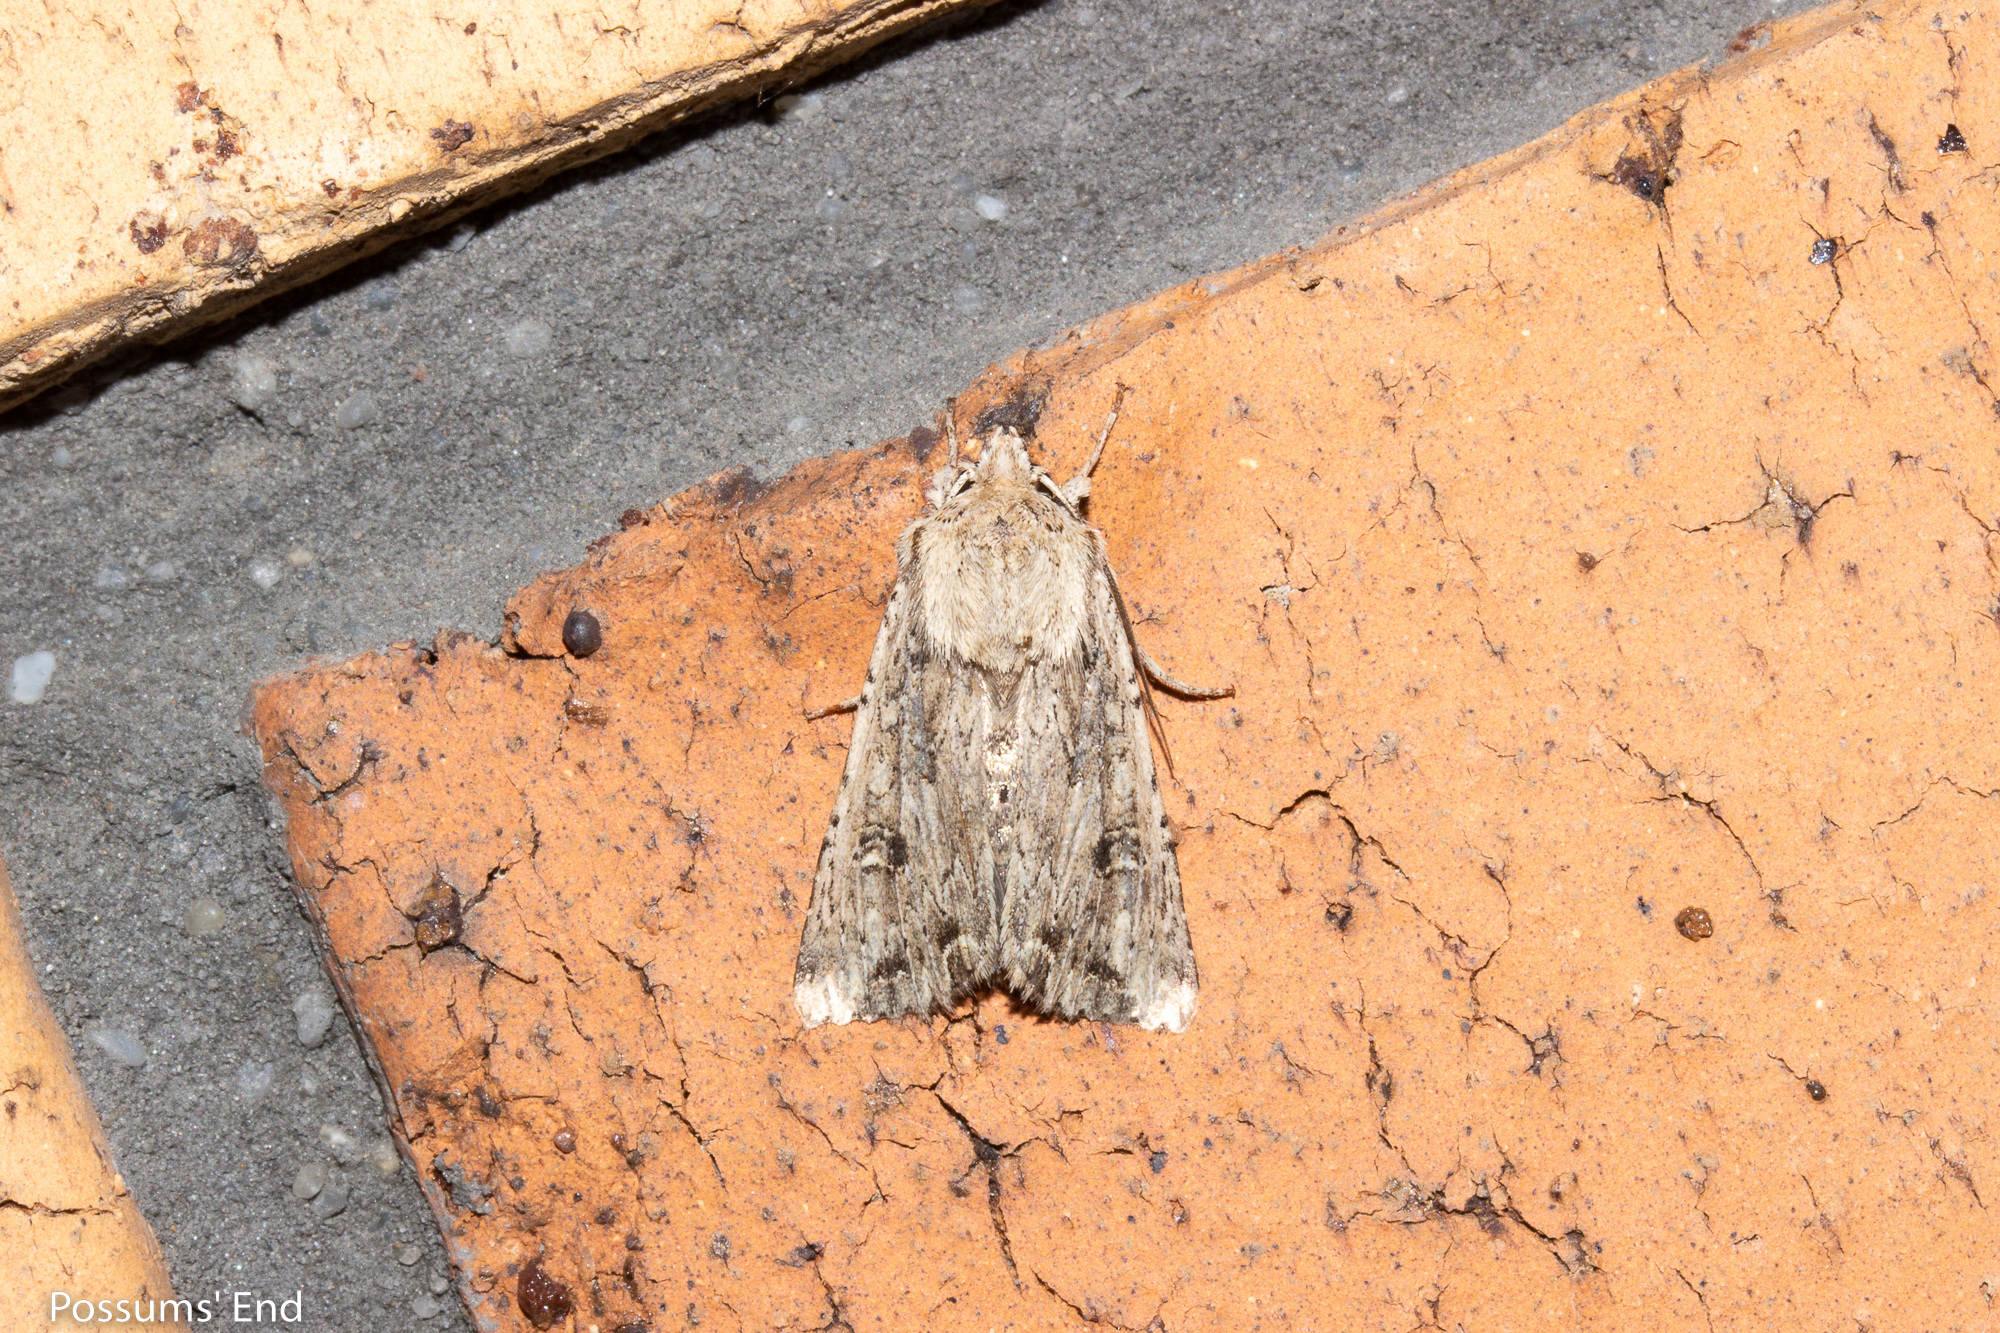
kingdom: Animalia
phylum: Arthropoda
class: Insecta
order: Lepidoptera
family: Noctuidae
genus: Ichneutica
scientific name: Ichneutica lignana
